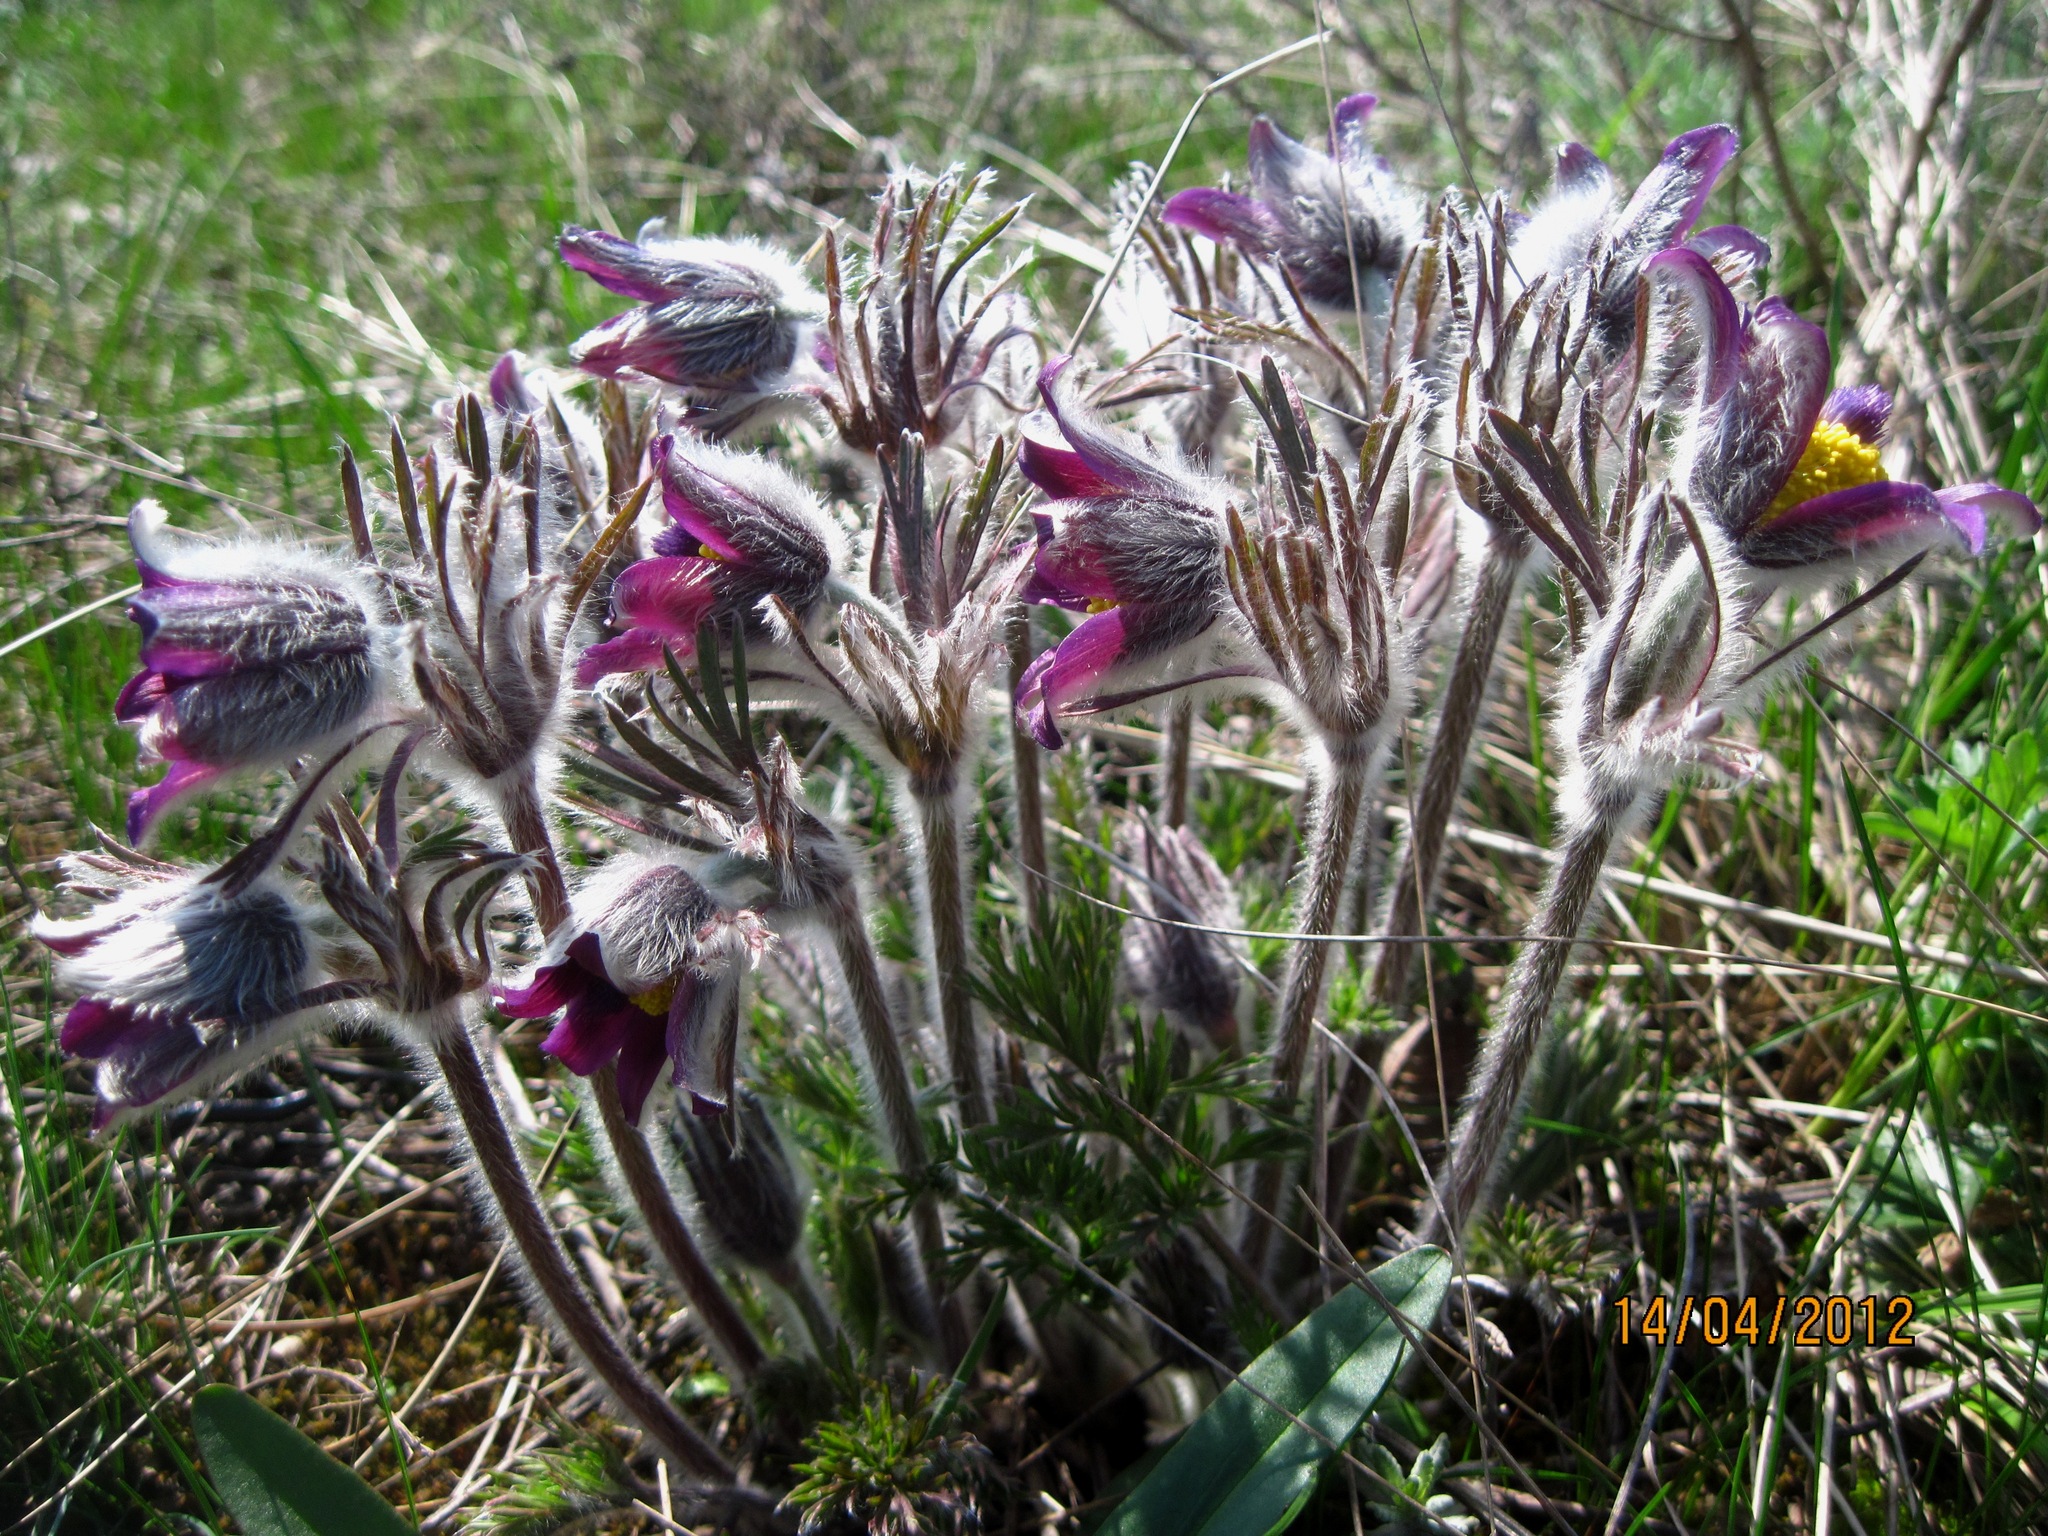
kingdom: Plantae
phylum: Tracheophyta
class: Magnoliopsida
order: Ranunculales
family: Ranunculaceae
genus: Pulsatilla
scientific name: Pulsatilla pratensis
